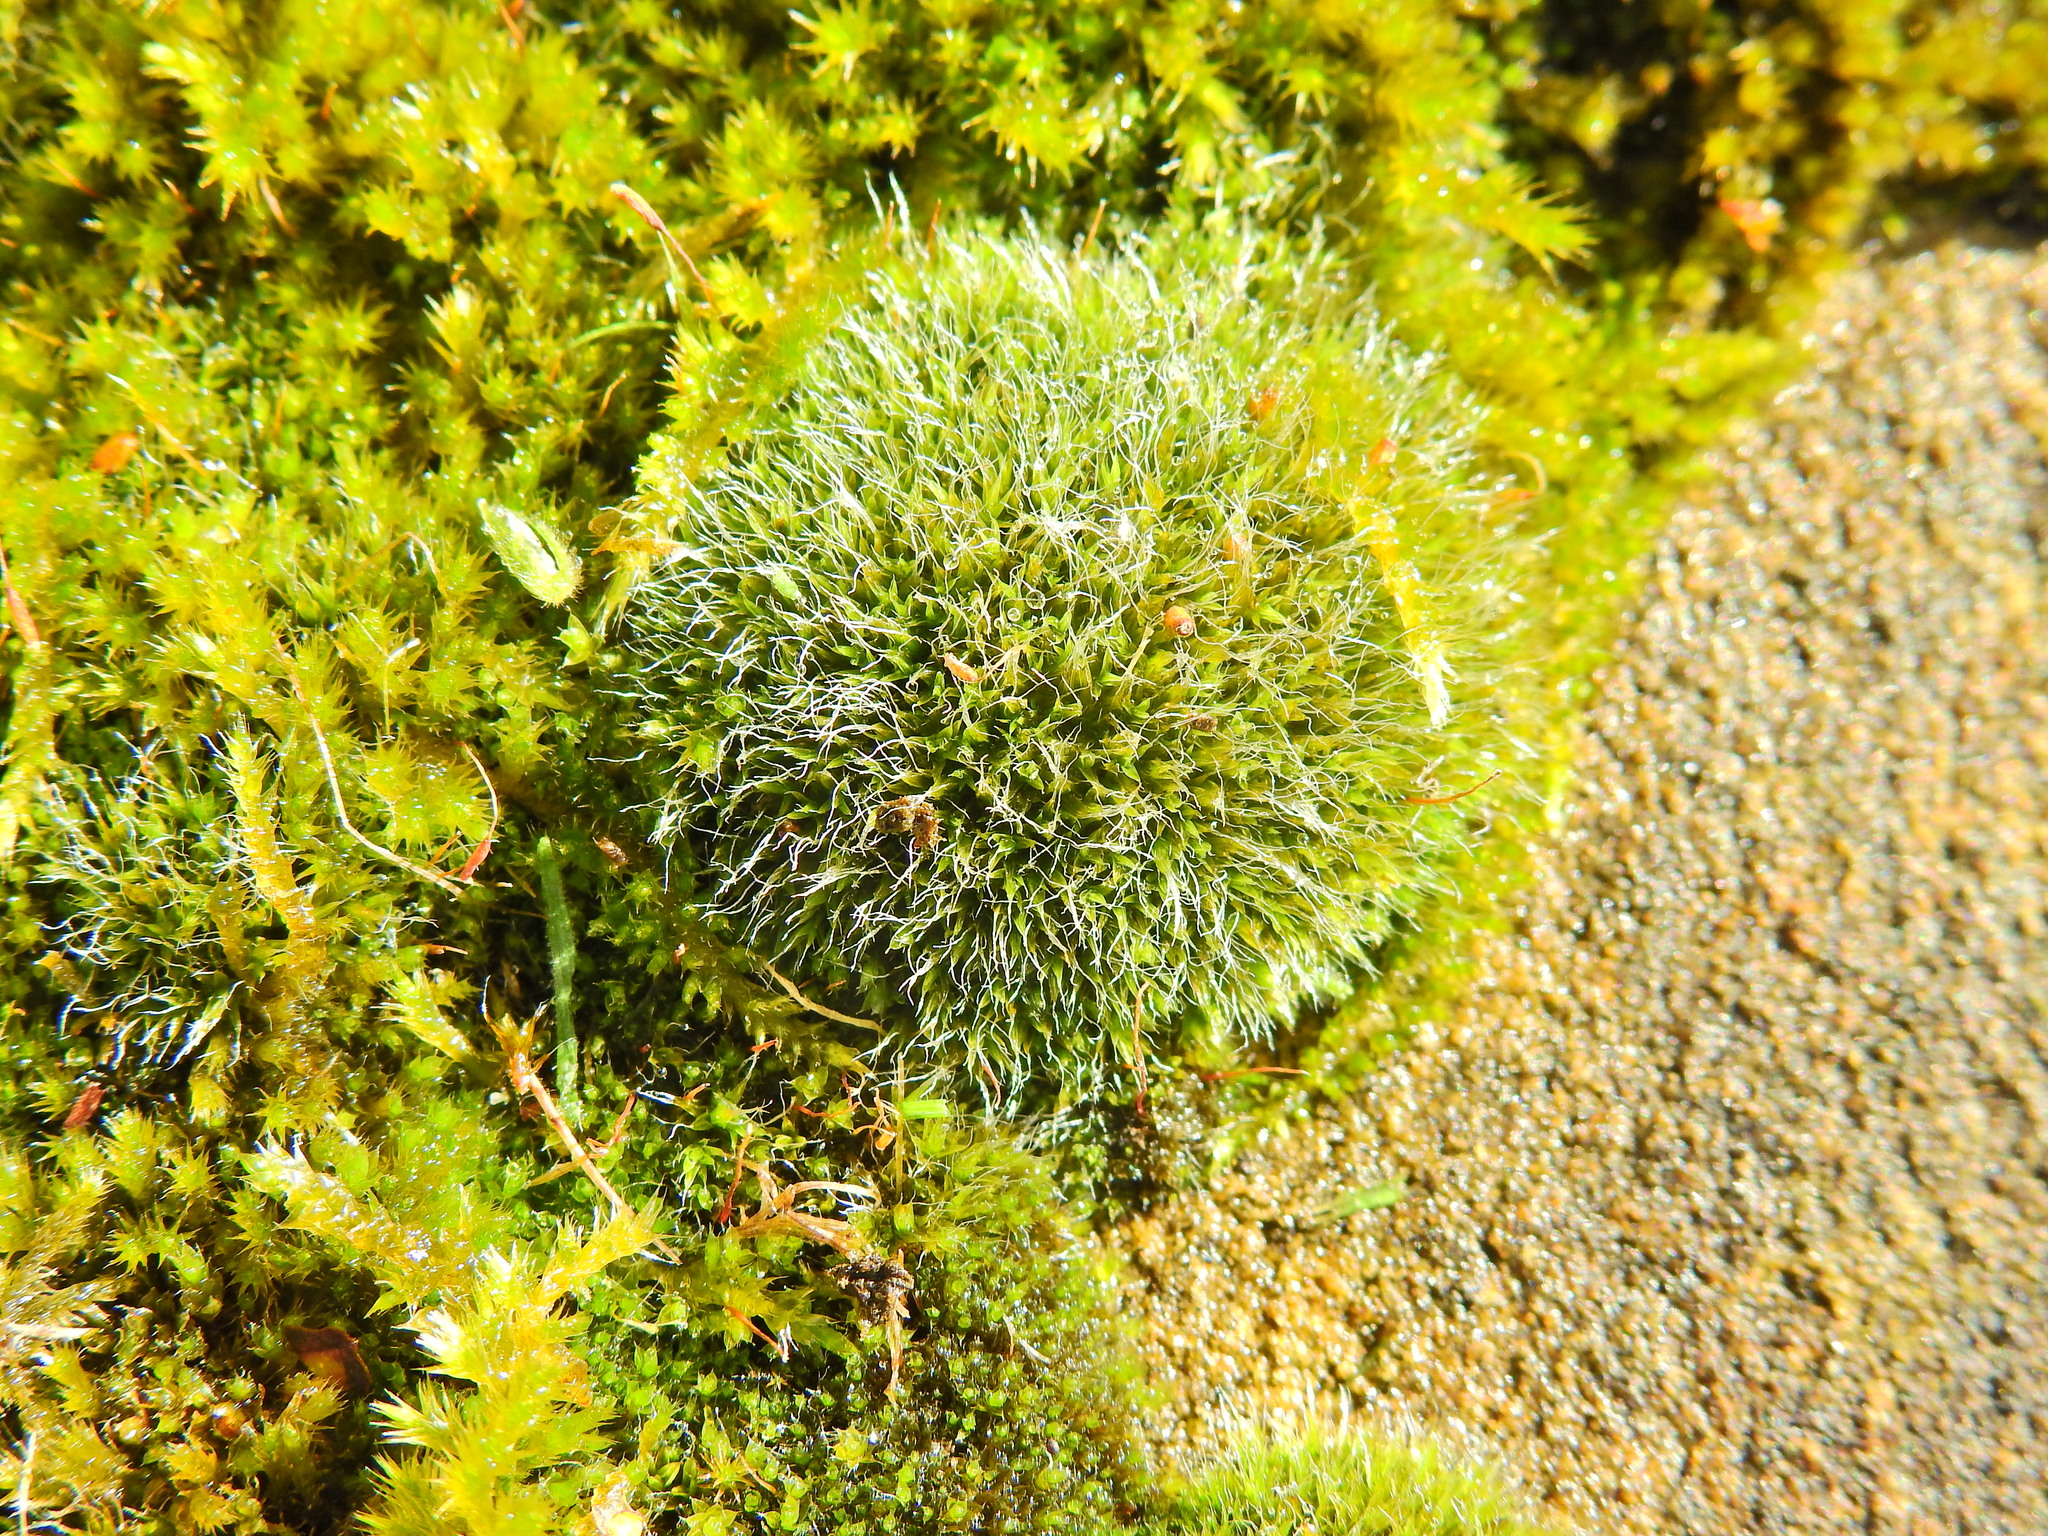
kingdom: Plantae
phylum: Bryophyta
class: Bryopsida
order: Grimmiales
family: Grimmiaceae
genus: Grimmia
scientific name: Grimmia pulvinata
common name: Grey-cushioned grimmia
